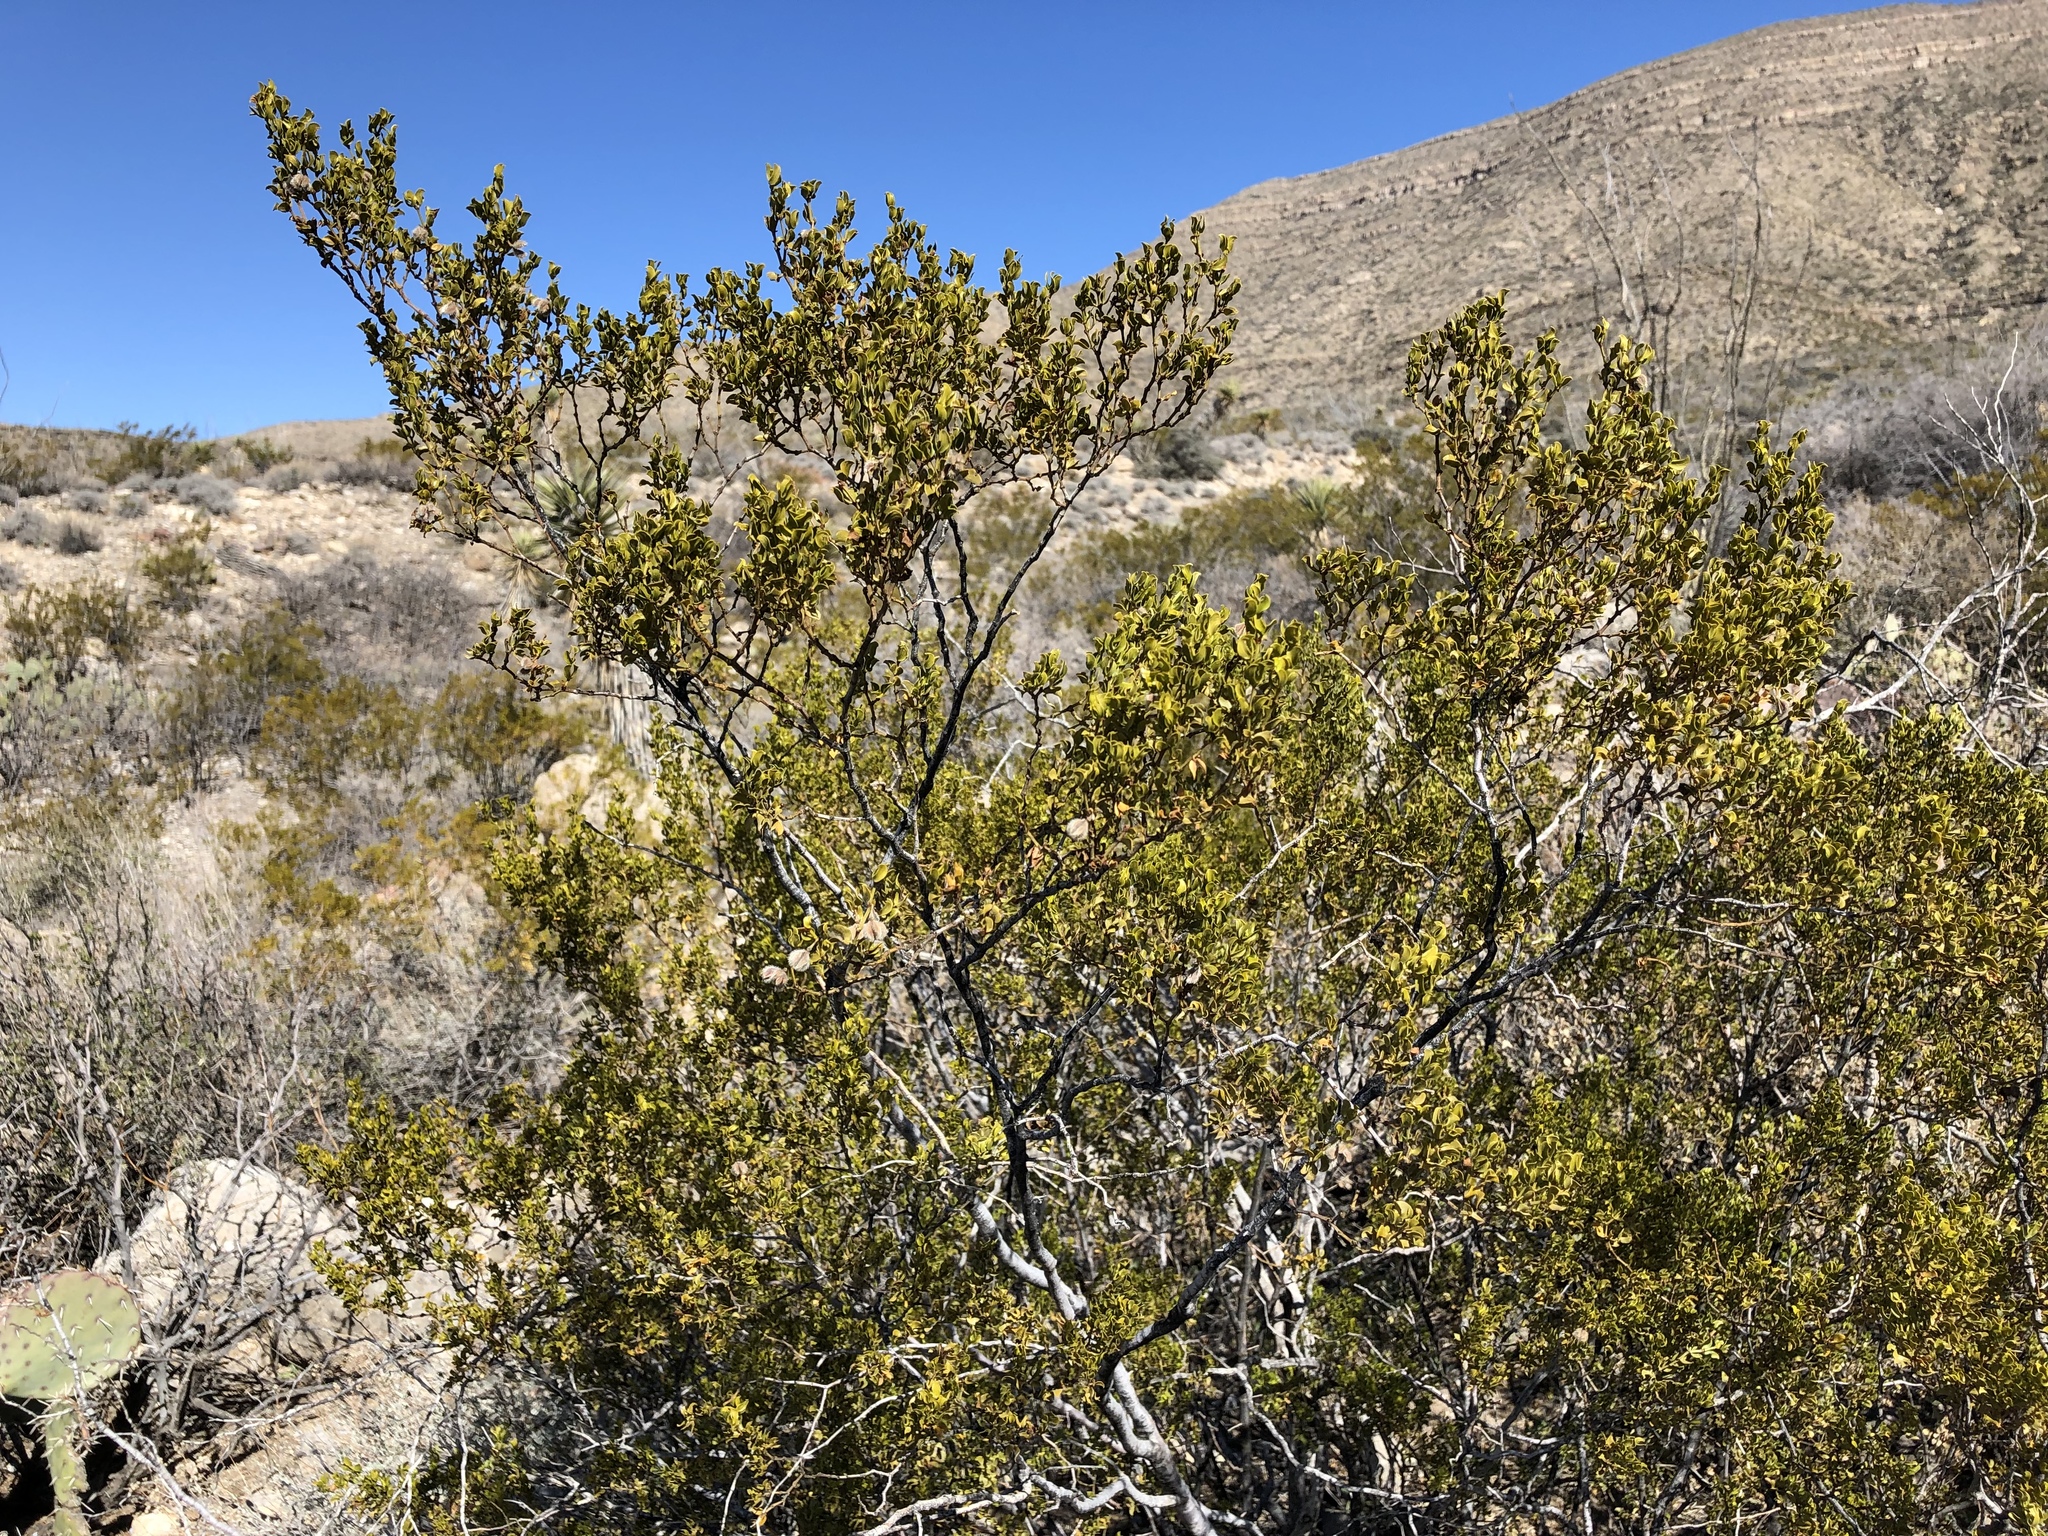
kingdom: Plantae
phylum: Tracheophyta
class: Magnoliopsida
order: Zygophyllales
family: Zygophyllaceae
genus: Larrea
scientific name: Larrea tridentata
